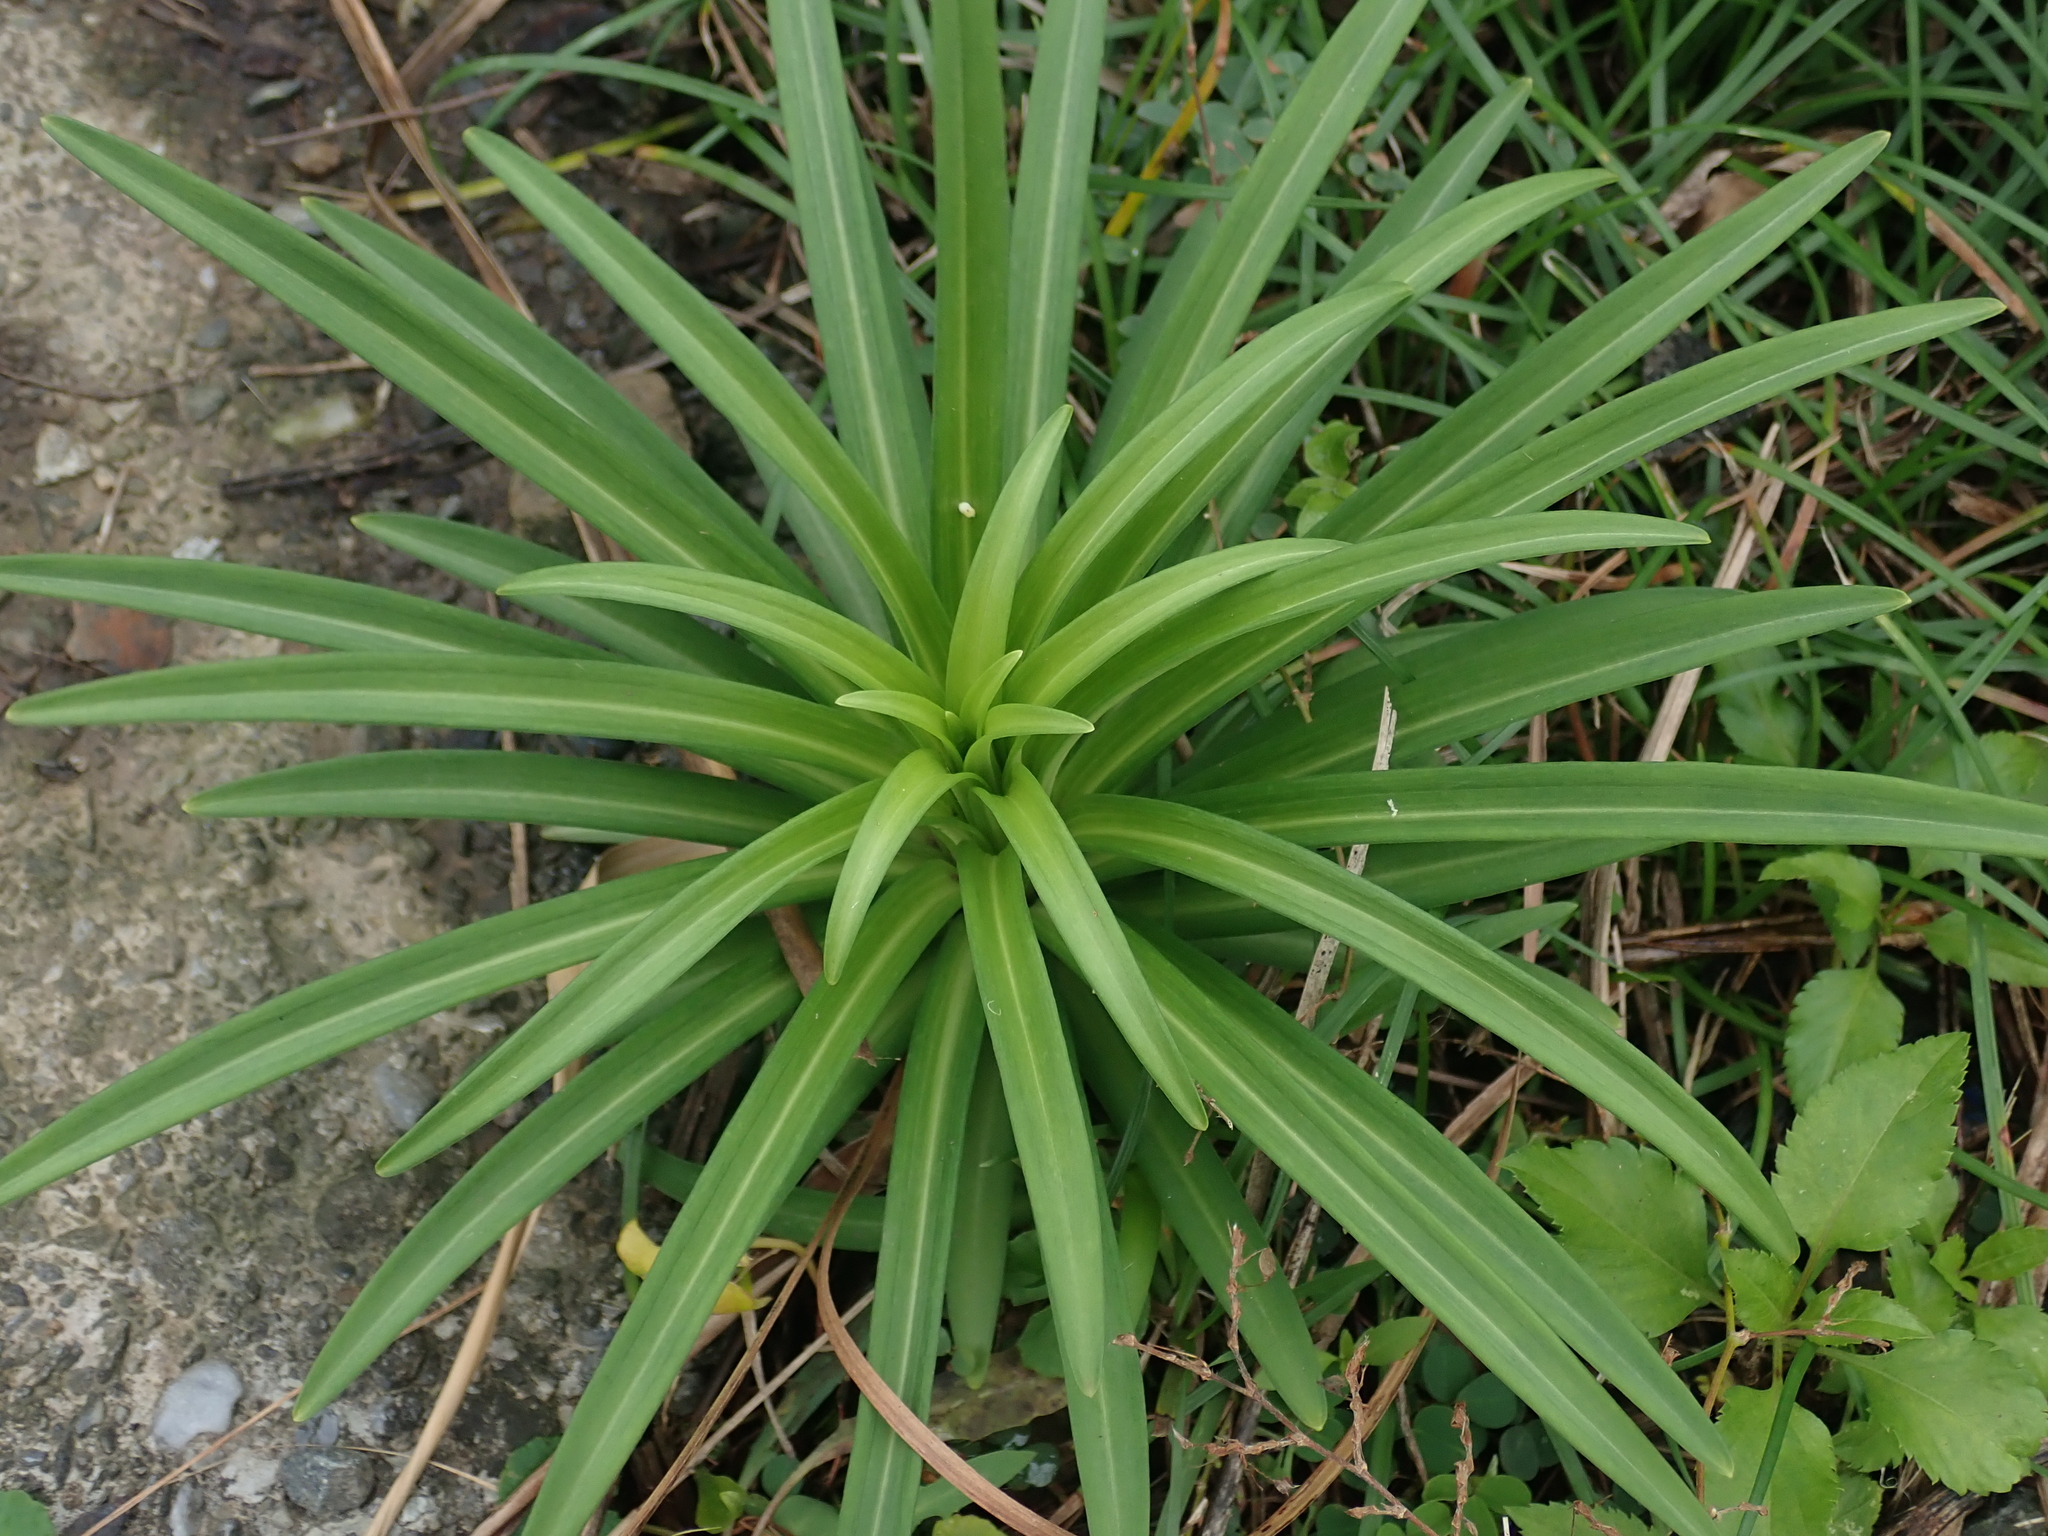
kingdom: Plantae
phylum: Tracheophyta
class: Liliopsida
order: Liliales
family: Liliaceae
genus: Lilium
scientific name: Lilium formosanum
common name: Formosa lily
